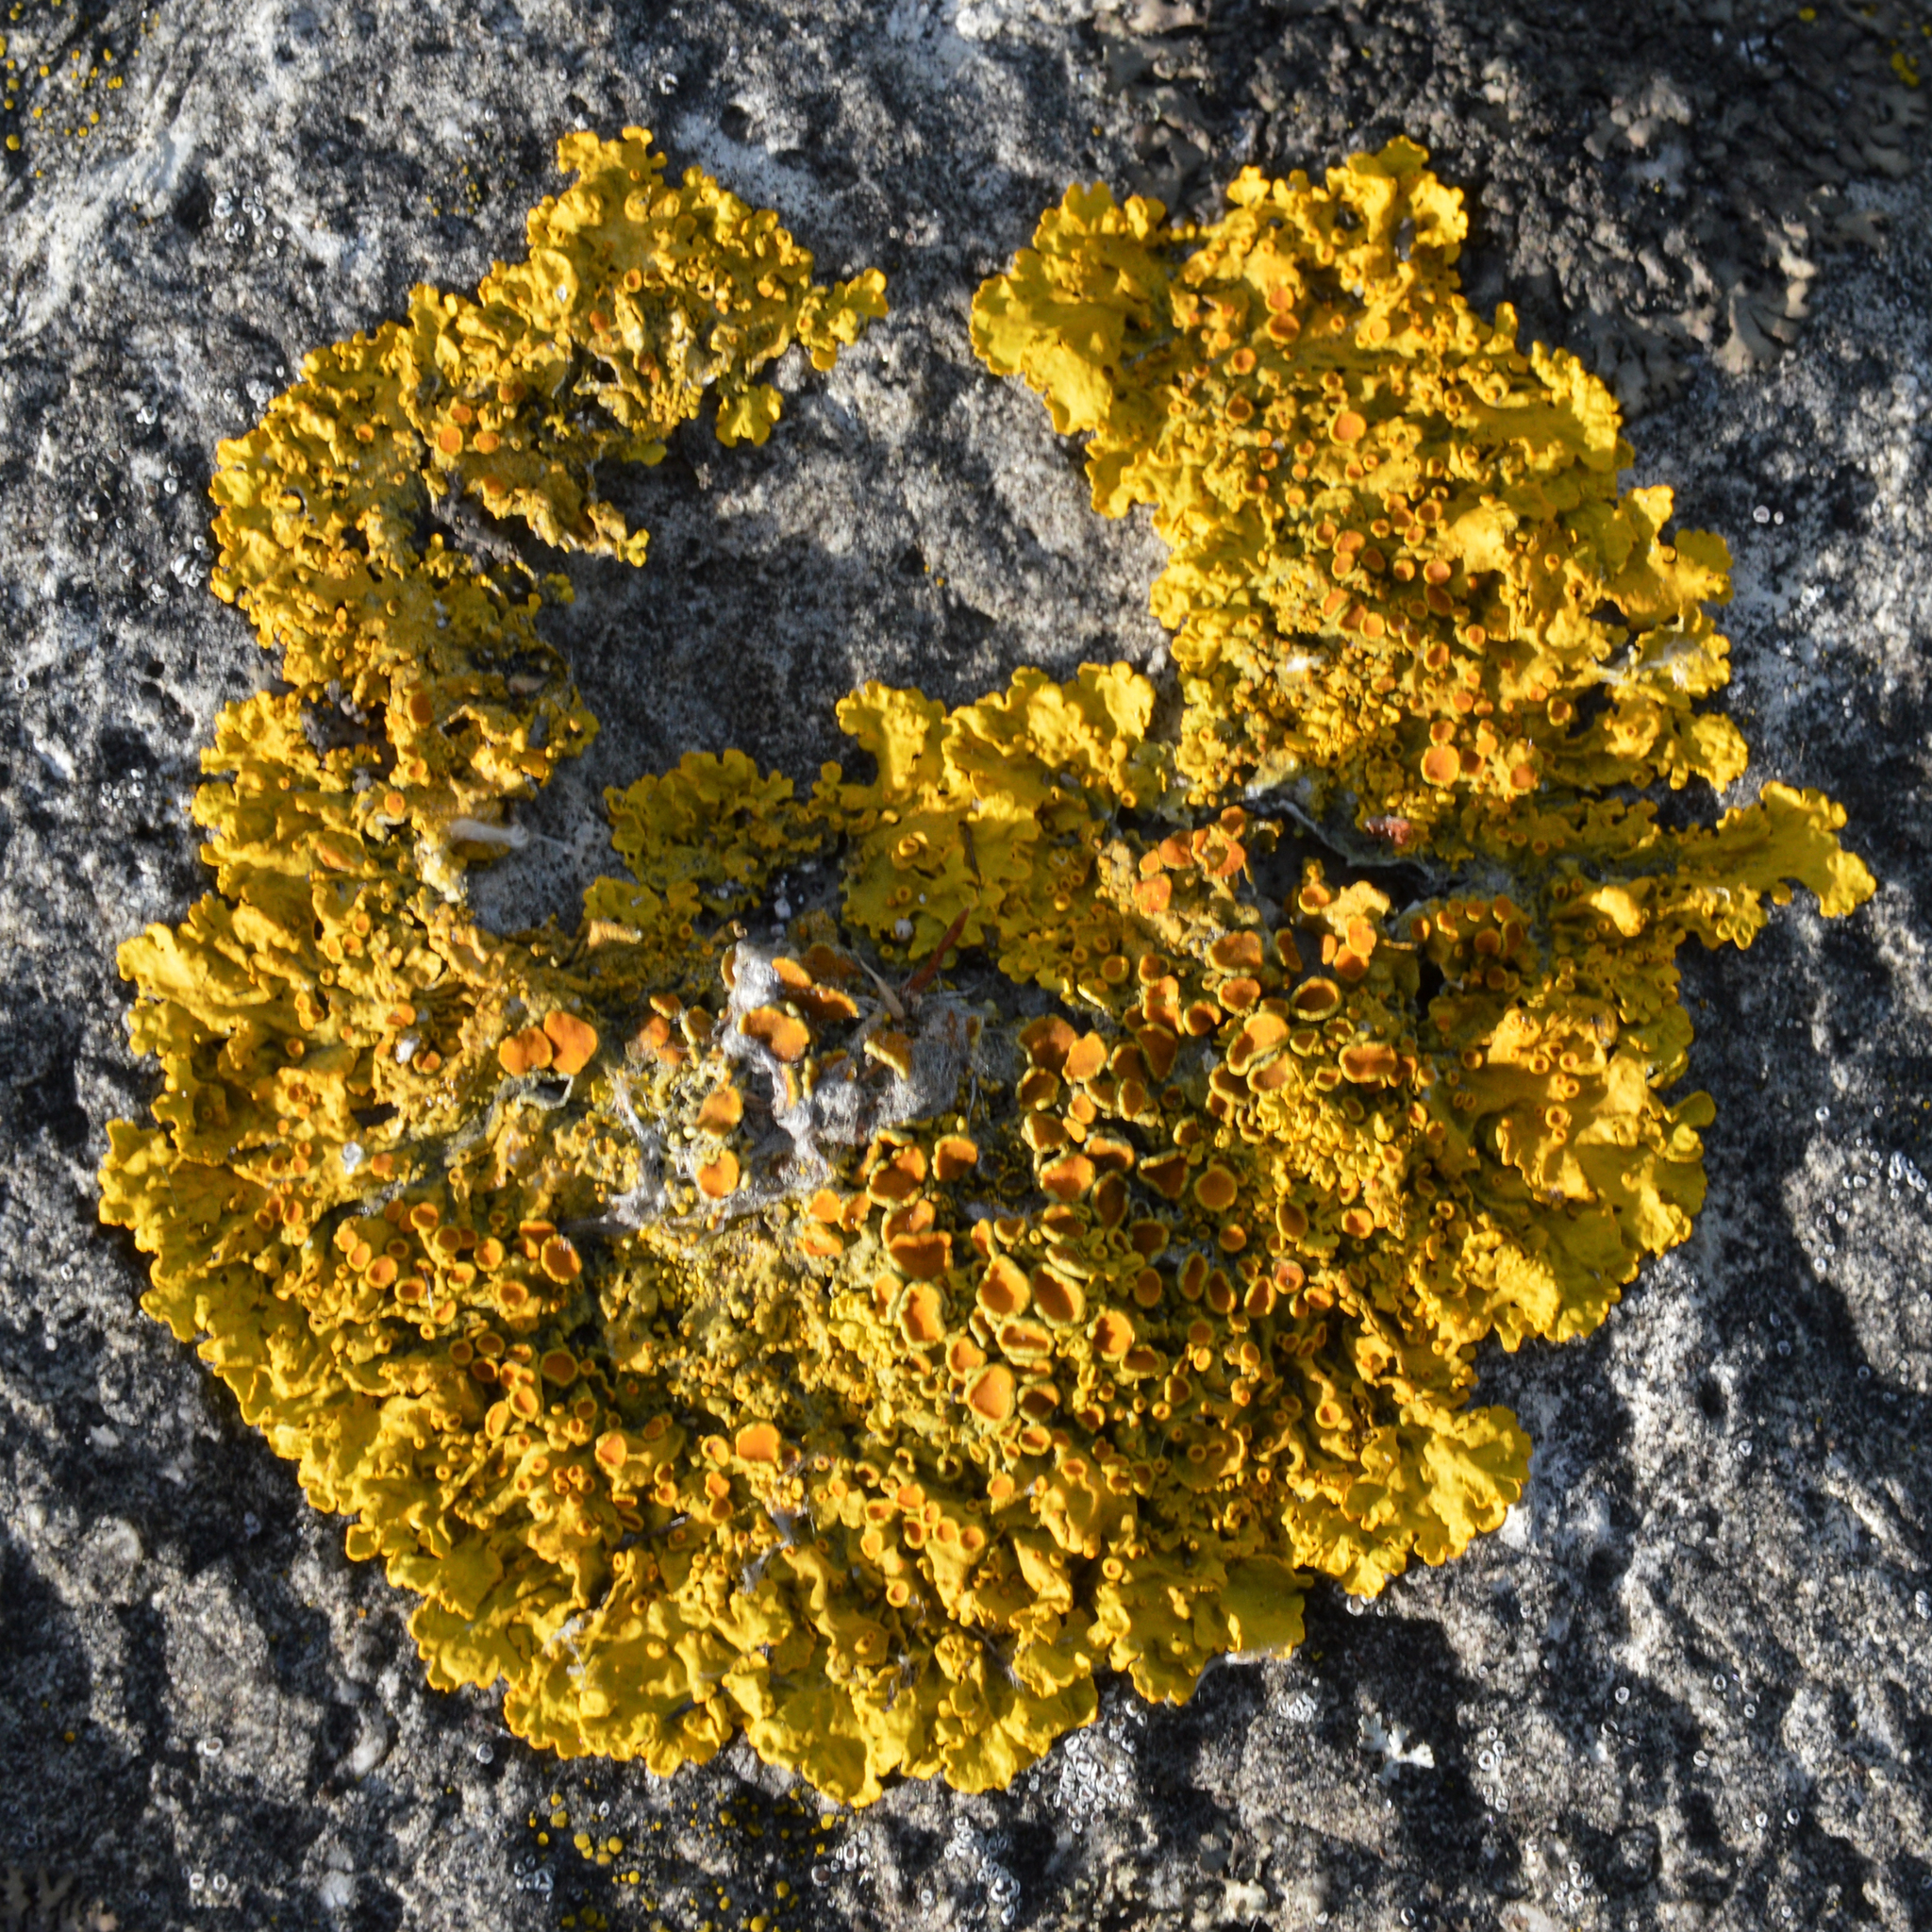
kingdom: Fungi
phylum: Ascomycota
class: Lecanoromycetes
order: Teloschistales
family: Teloschistaceae
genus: Xanthoria
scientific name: Xanthoria parietina
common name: Common orange lichen
